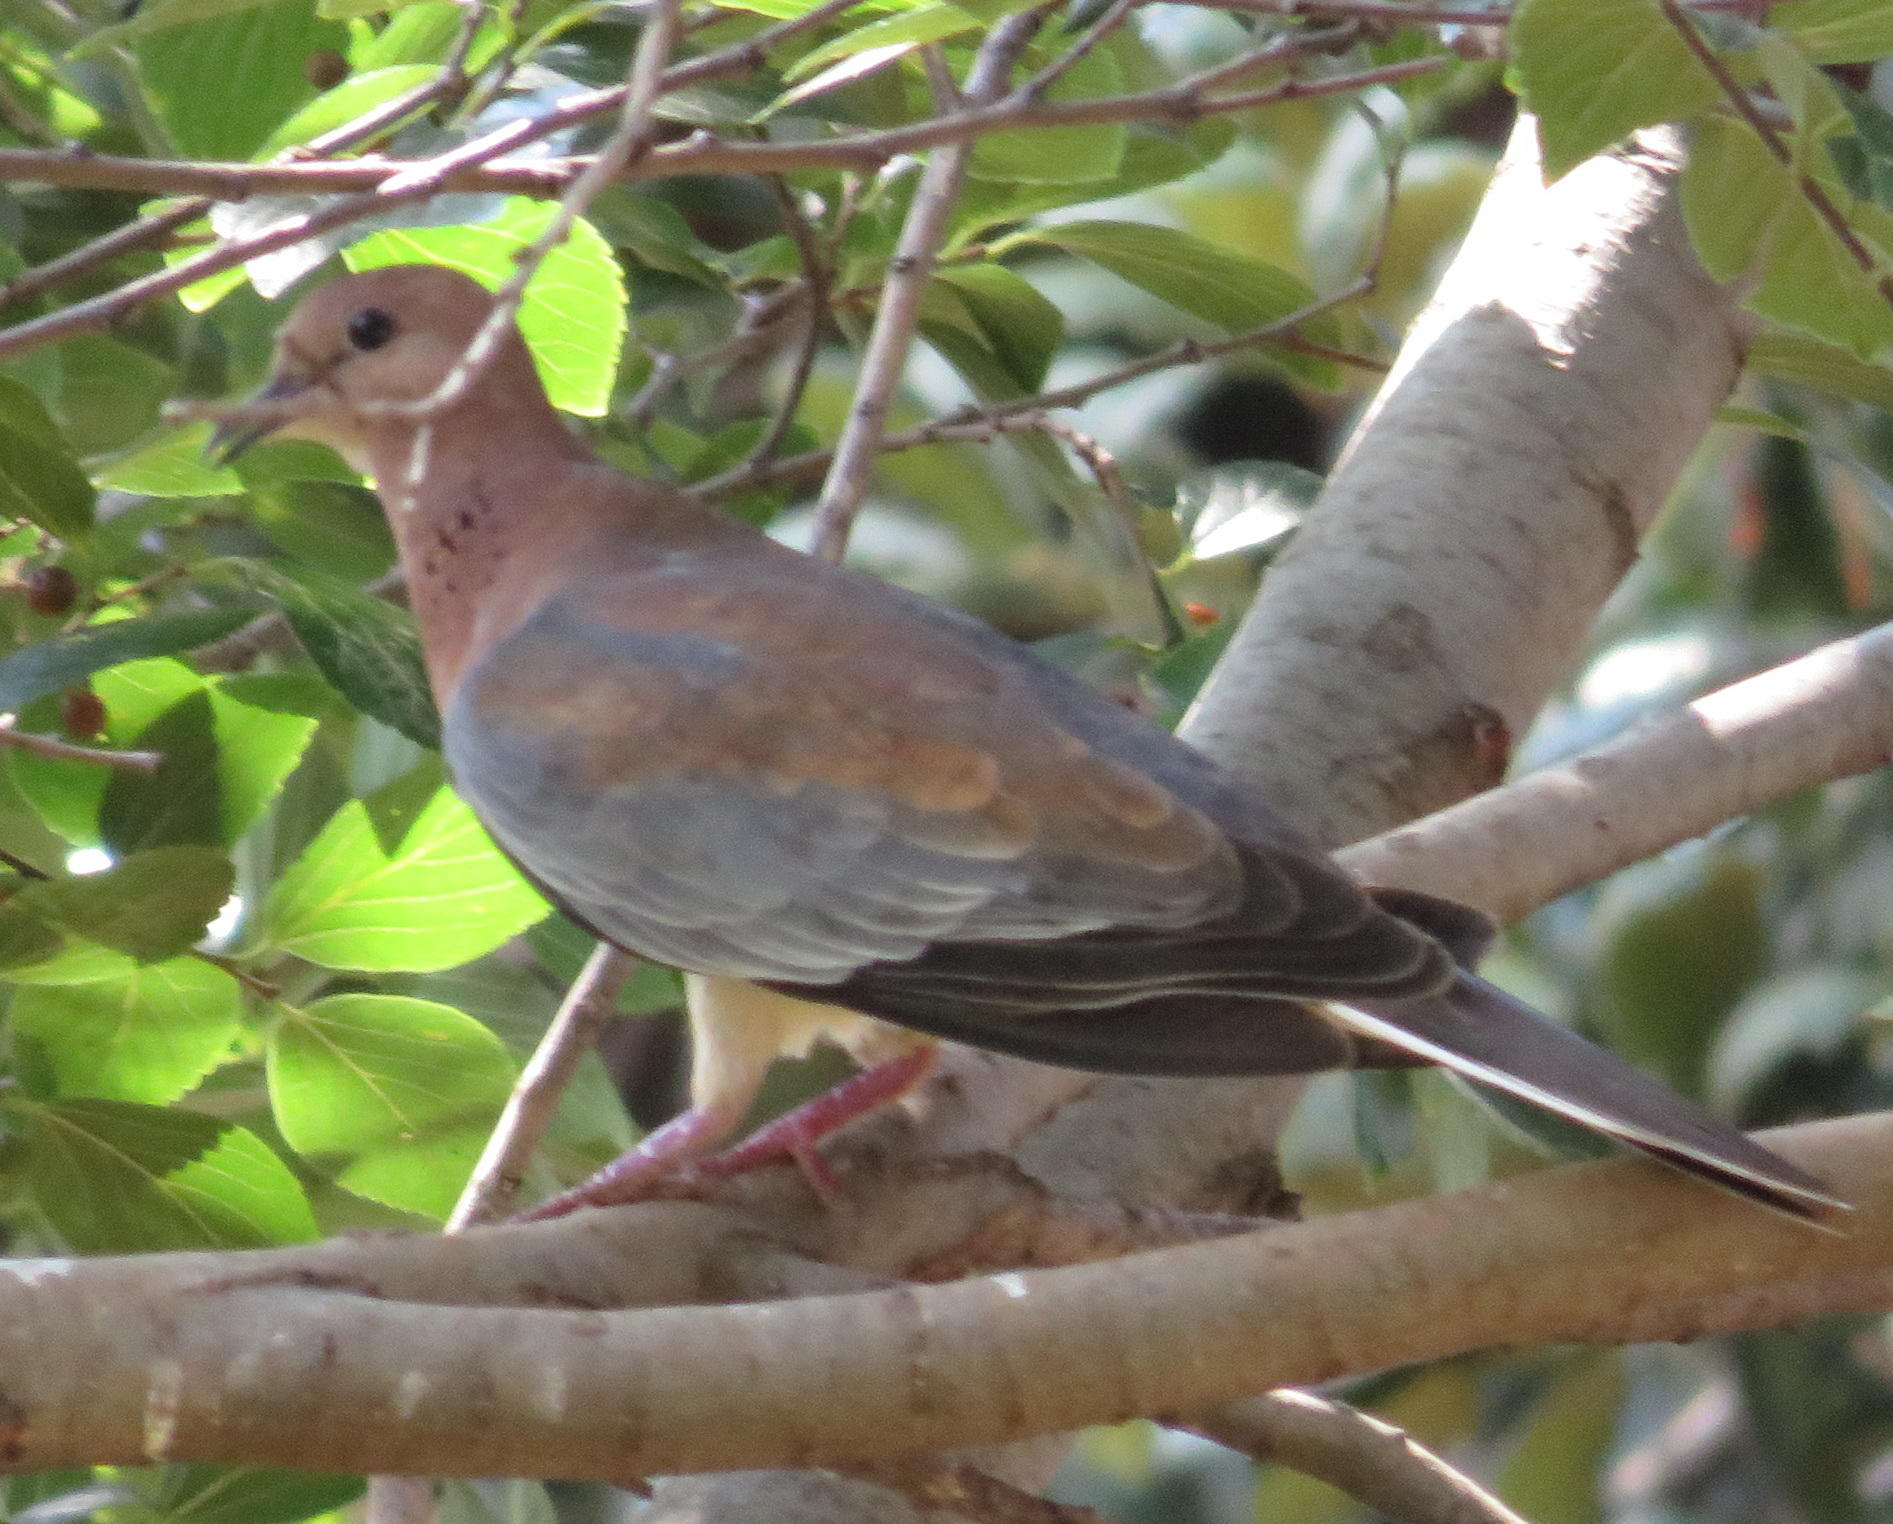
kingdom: Animalia
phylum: Chordata
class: Aves
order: Columbiformes
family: Columbidae
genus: Spilopelia
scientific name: Spilopelia senegalensis
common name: Laughing dove
